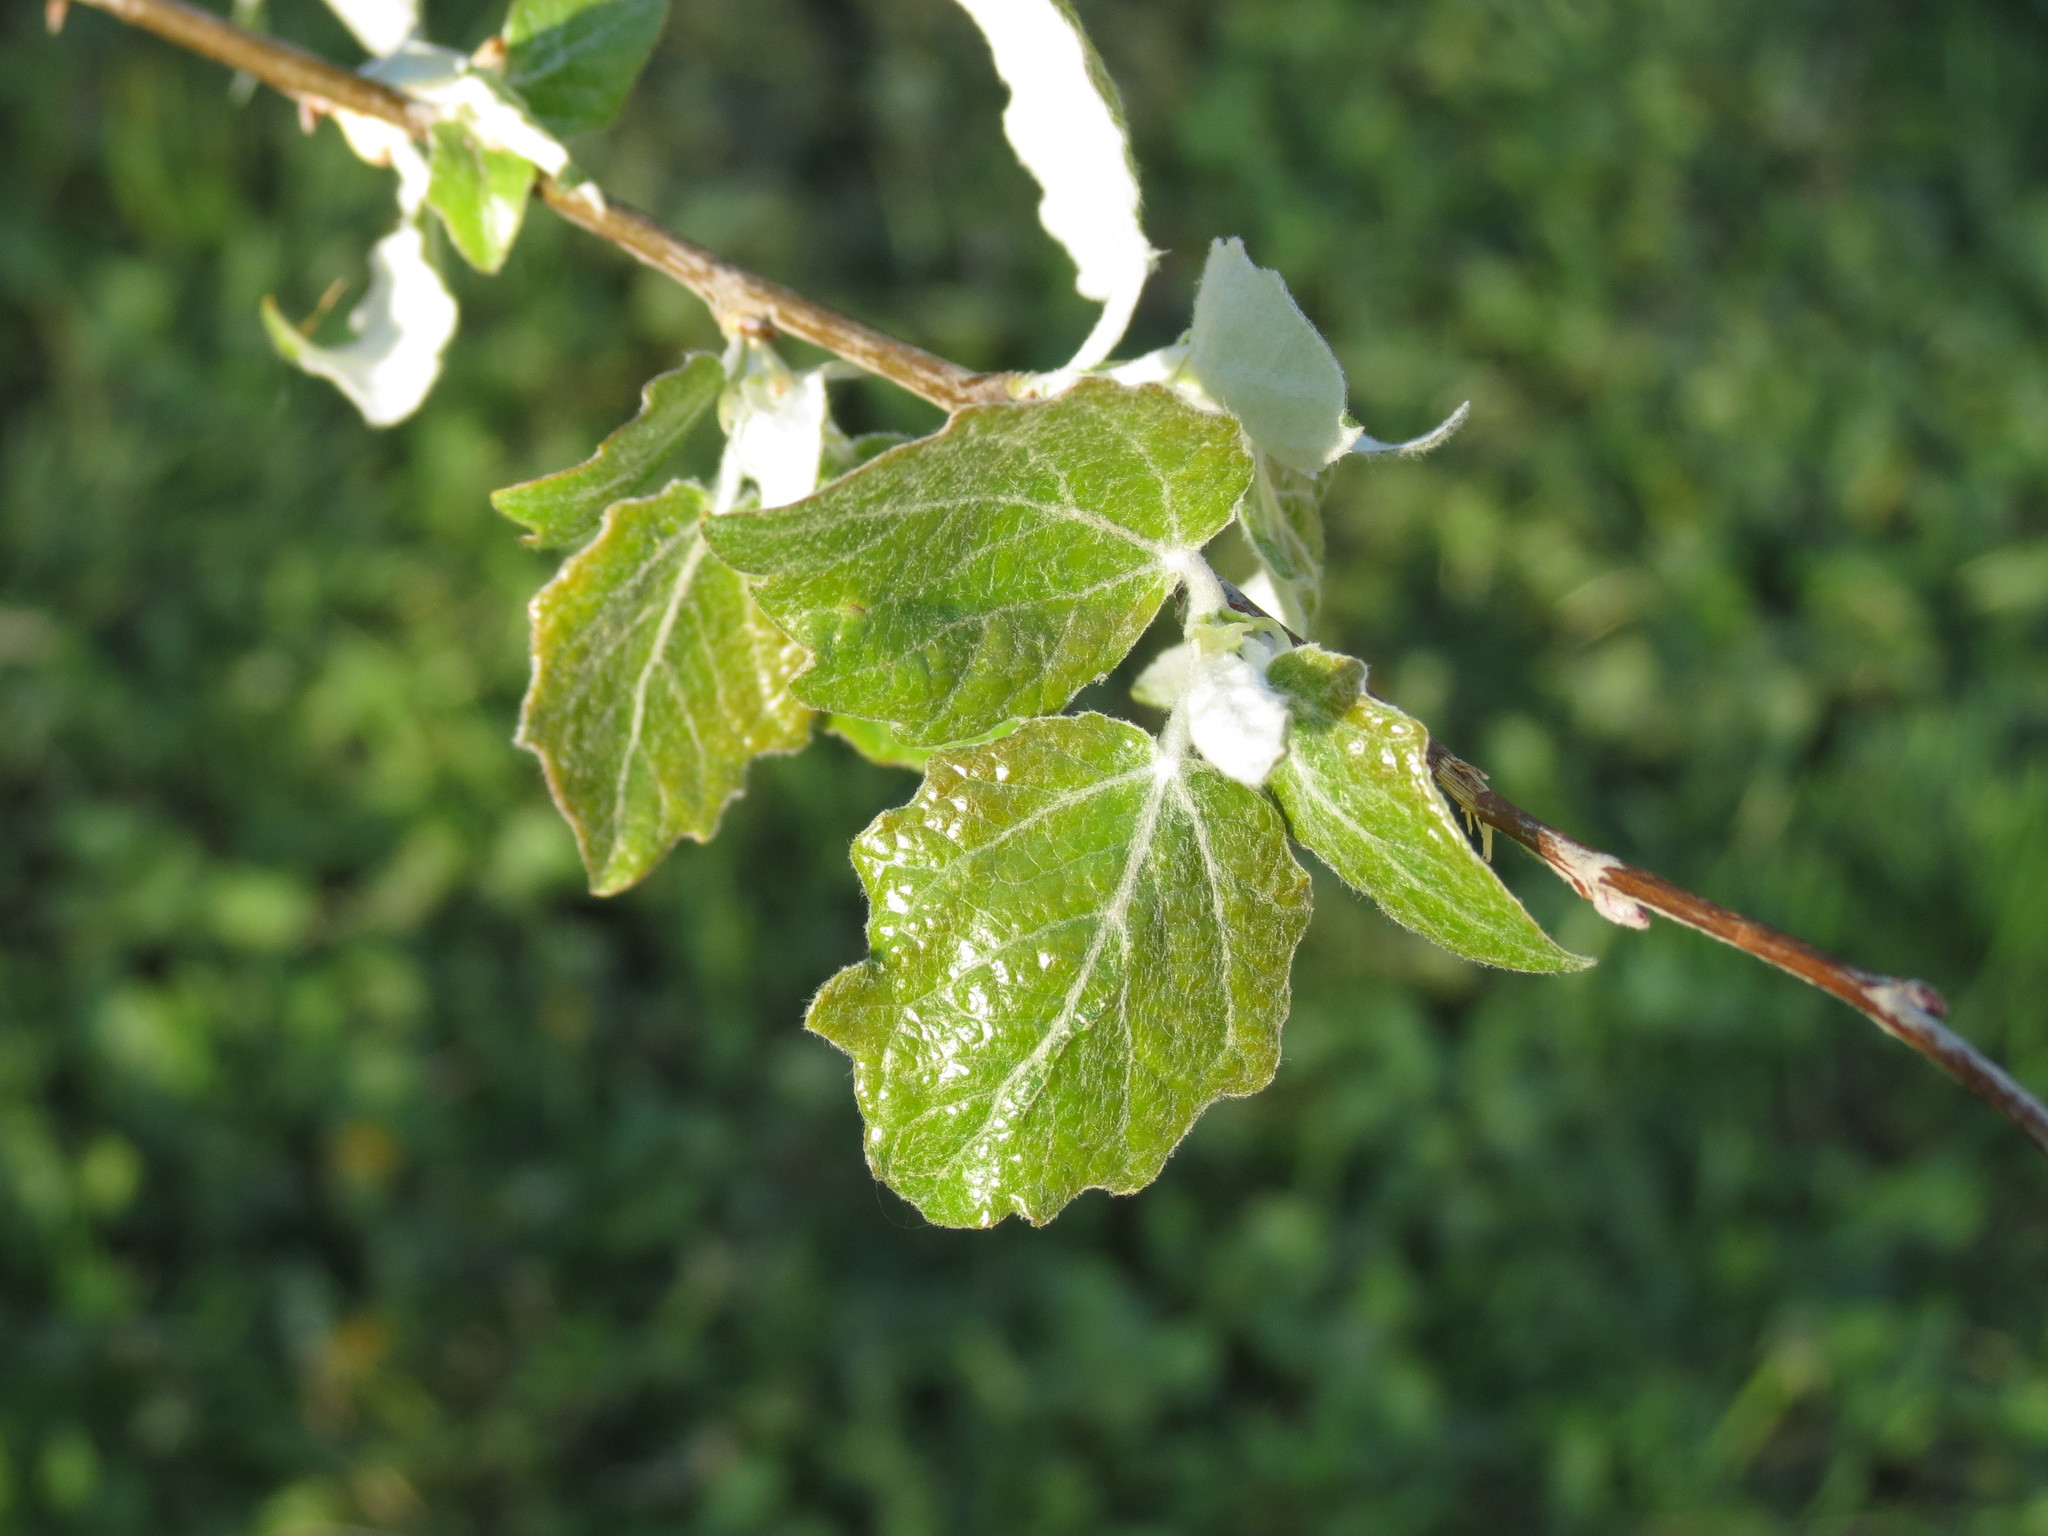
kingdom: Plantae
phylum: Tracheophyta
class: Magnoliopsida
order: Malpighiales
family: Salicaceae
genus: Populus
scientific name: Populus canescens
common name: Gray poplar
